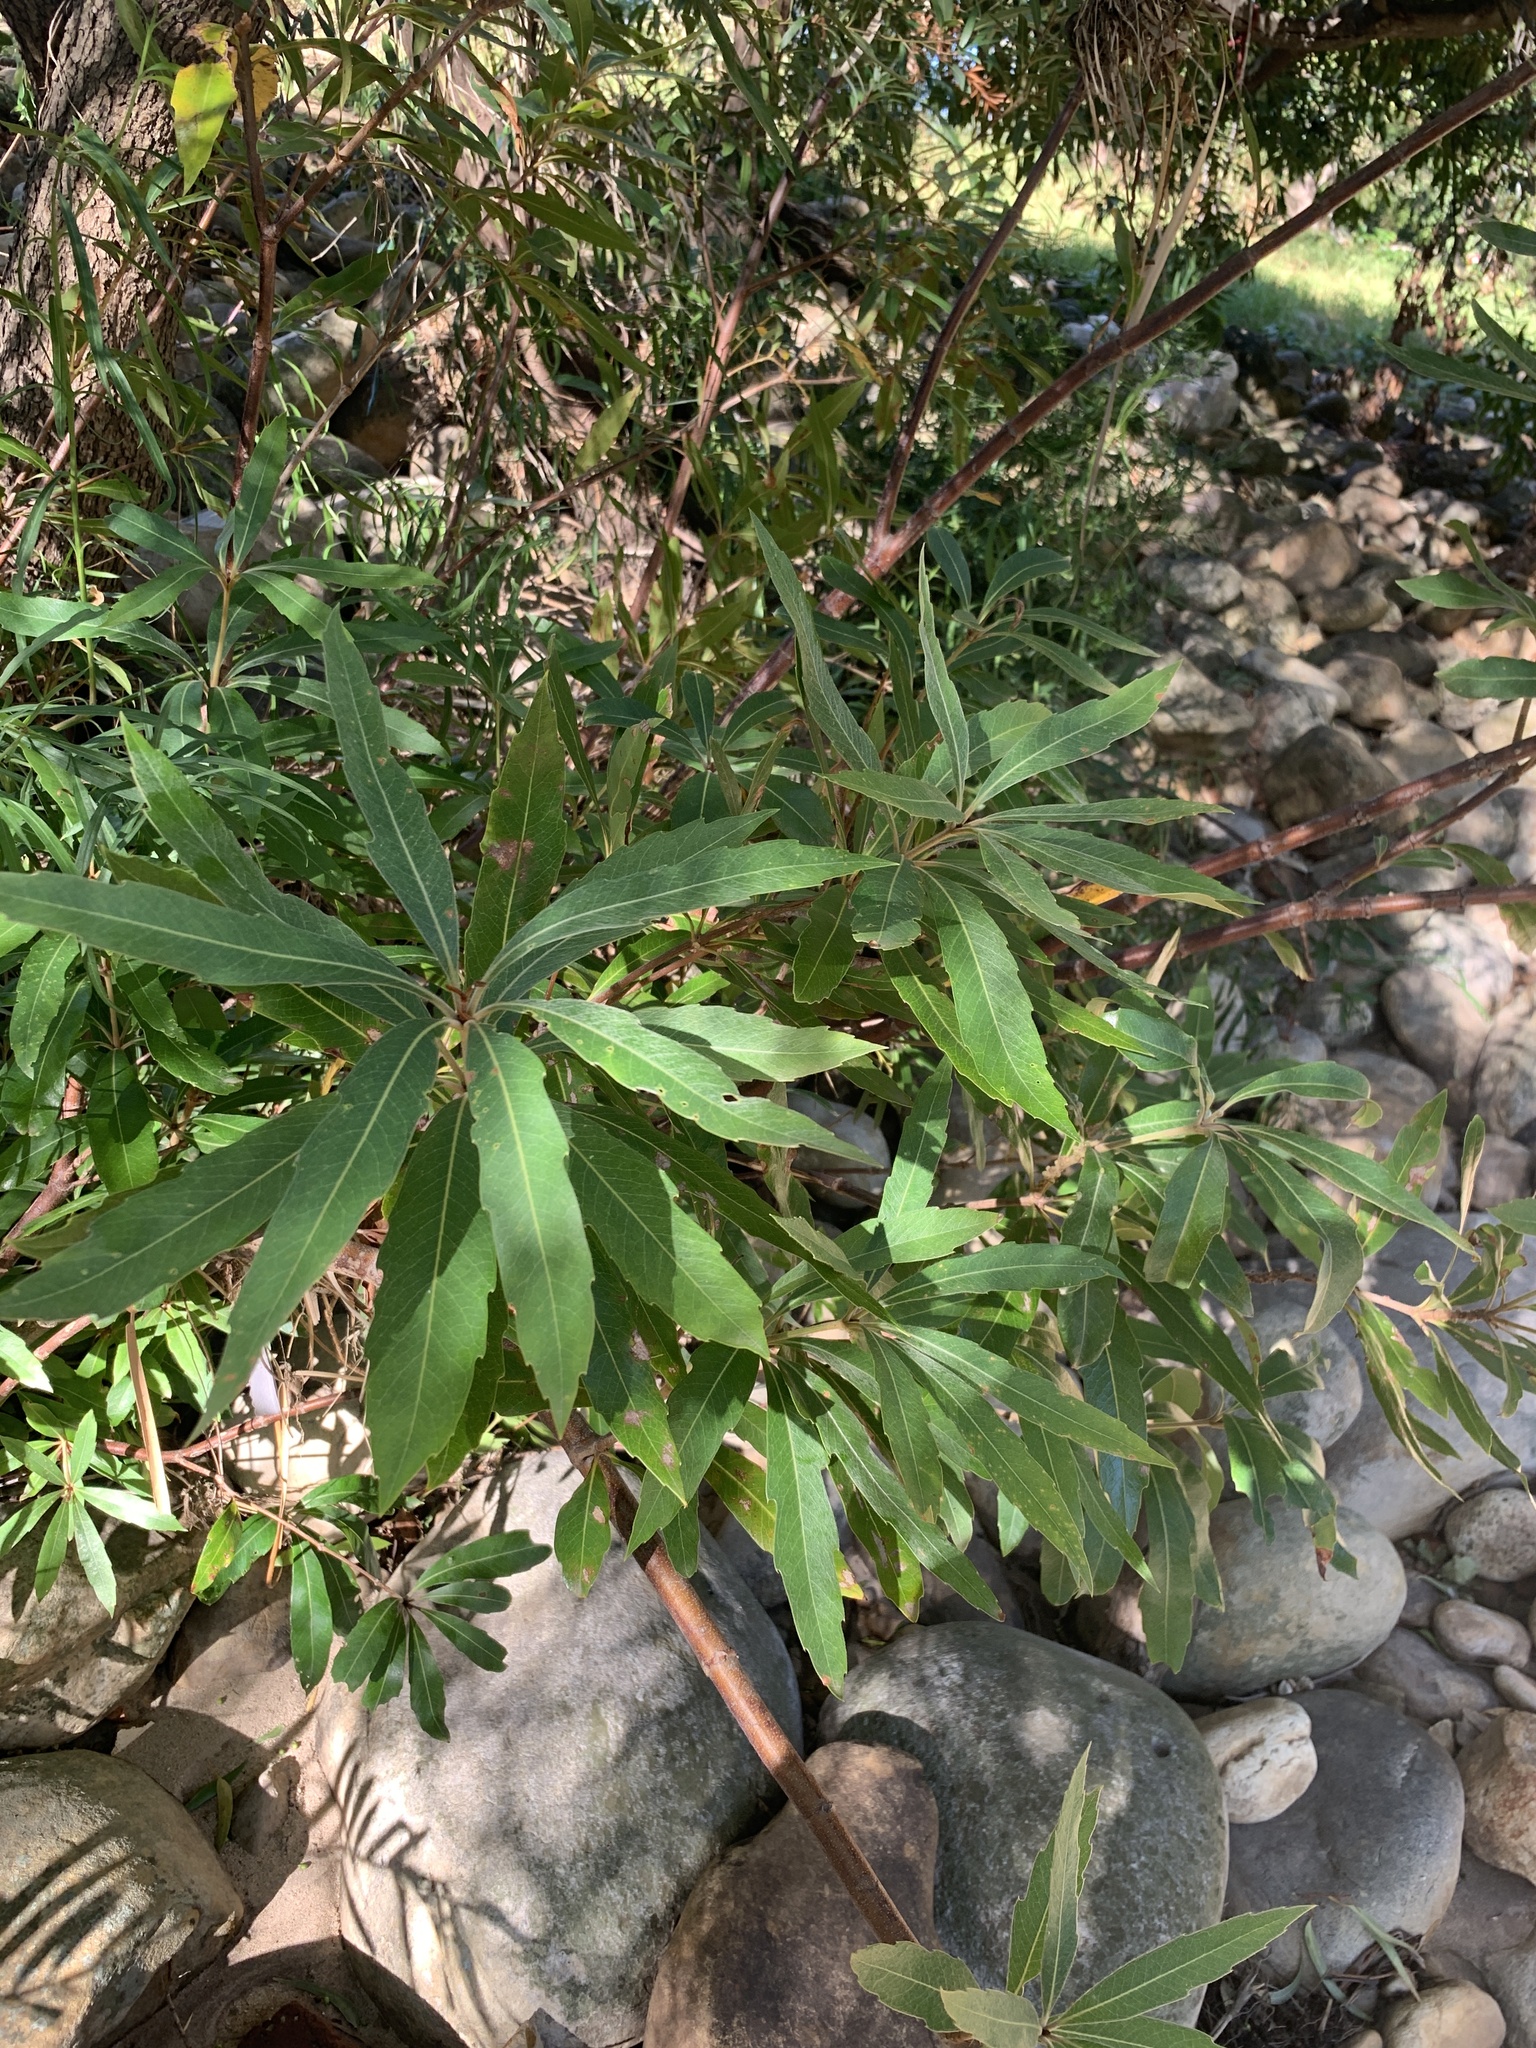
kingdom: Plantae
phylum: Tracheophyta
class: Magnoliopsida
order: Proteales
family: Proteaceae
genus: Brabejum
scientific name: Brabejum stellatifolium
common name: Wild almond
